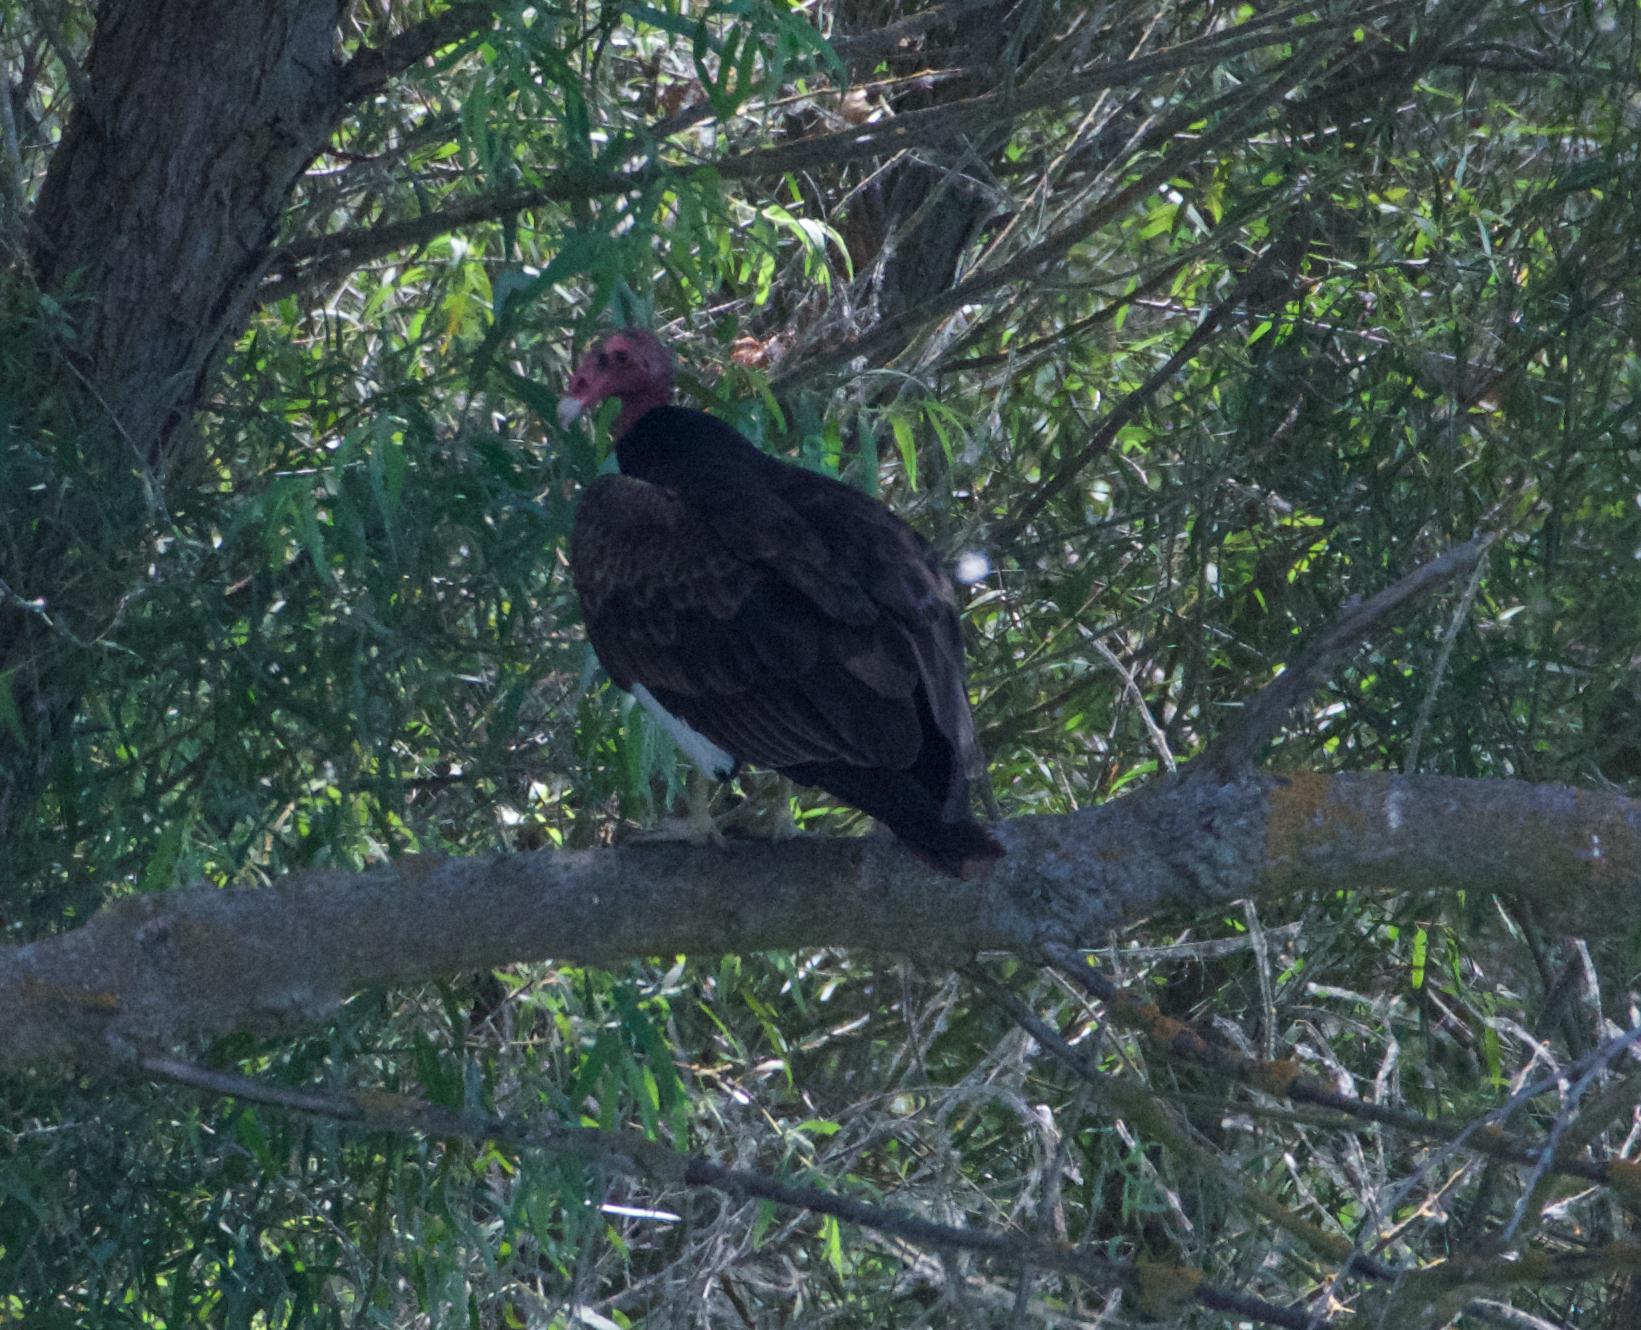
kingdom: Animalia
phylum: Chordata
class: Aves
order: Accipitriformes
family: Cathartidae
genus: Cathartes
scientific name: Cathartes aura
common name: Turkey vulture
